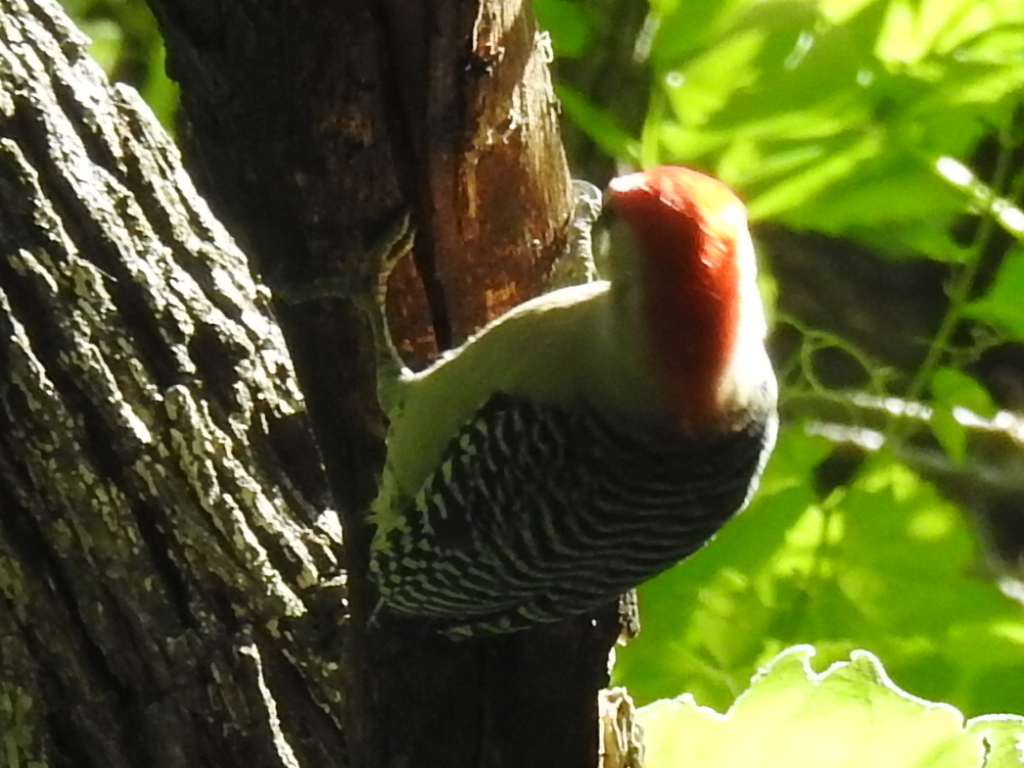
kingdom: Animalia
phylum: Chordata
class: Aves
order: Piciformes
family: Picidae
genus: Melanerpes
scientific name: Melanerpes carolinus
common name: Red-bellied woodpecker
